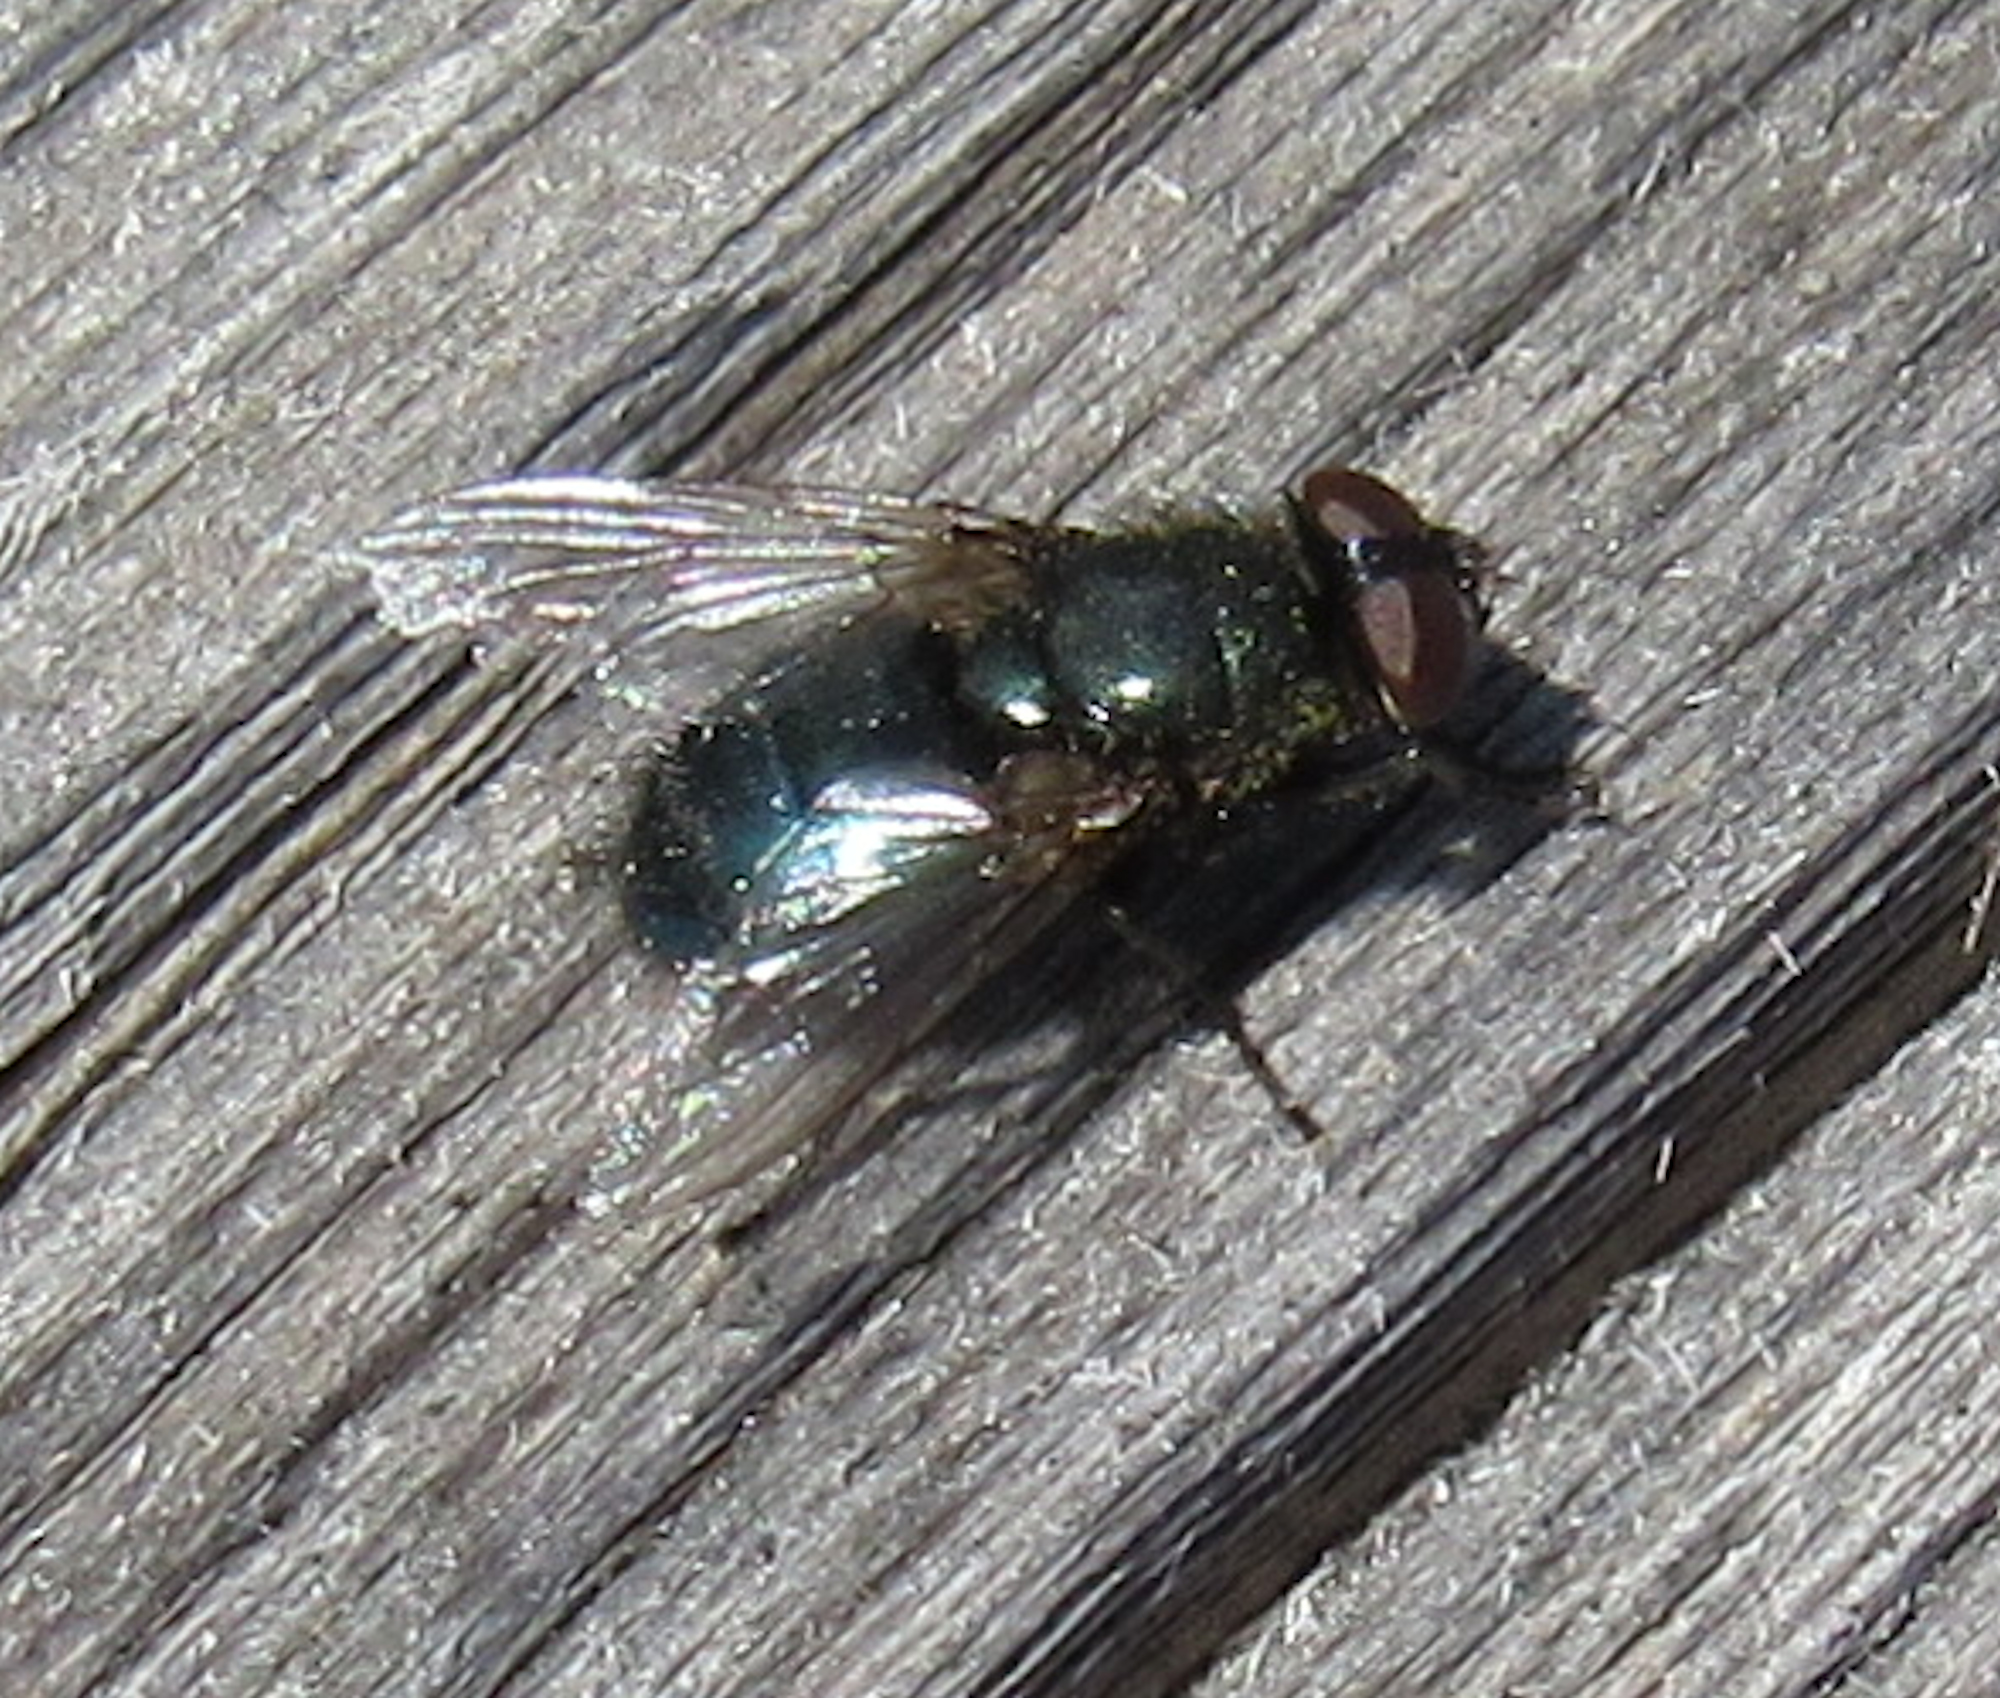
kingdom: Animalia
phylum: Arthropoda
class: Insecta
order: Diptera
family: Calliphoridae
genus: Phormia
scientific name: Phormia regina
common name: Black blow fly
